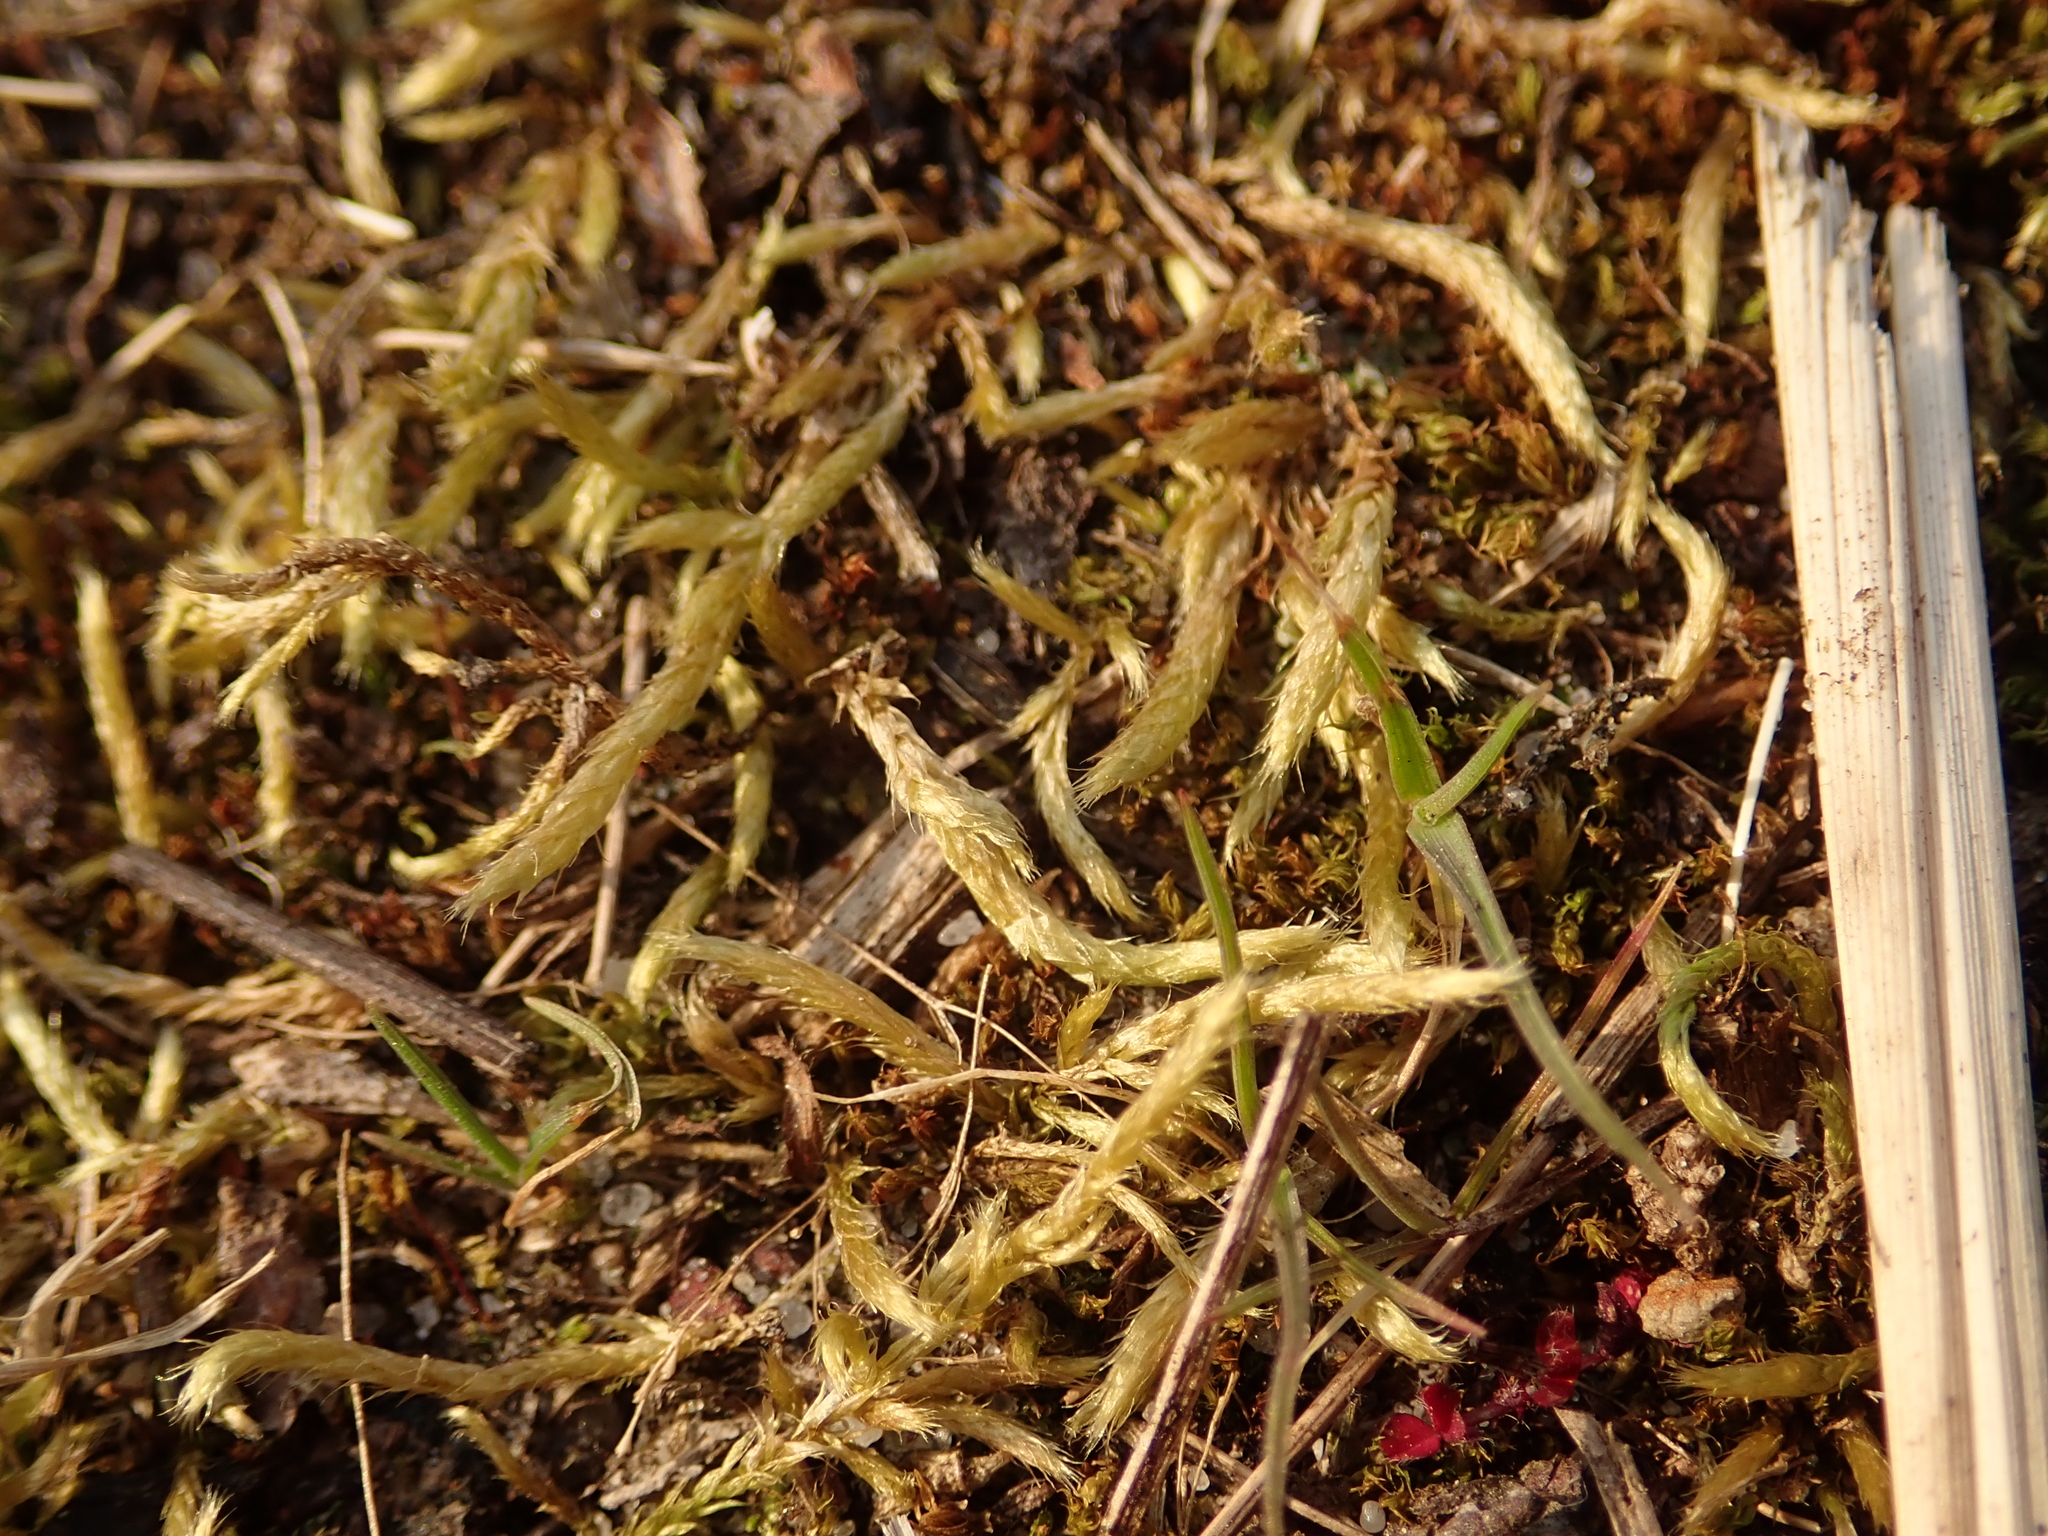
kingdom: Plantae
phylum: Bryophyta
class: Bryopsida
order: Hypnales
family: Brachytheciaceae
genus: Brachythecium
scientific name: Brachythecium albicans
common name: Whitish ragged moss
